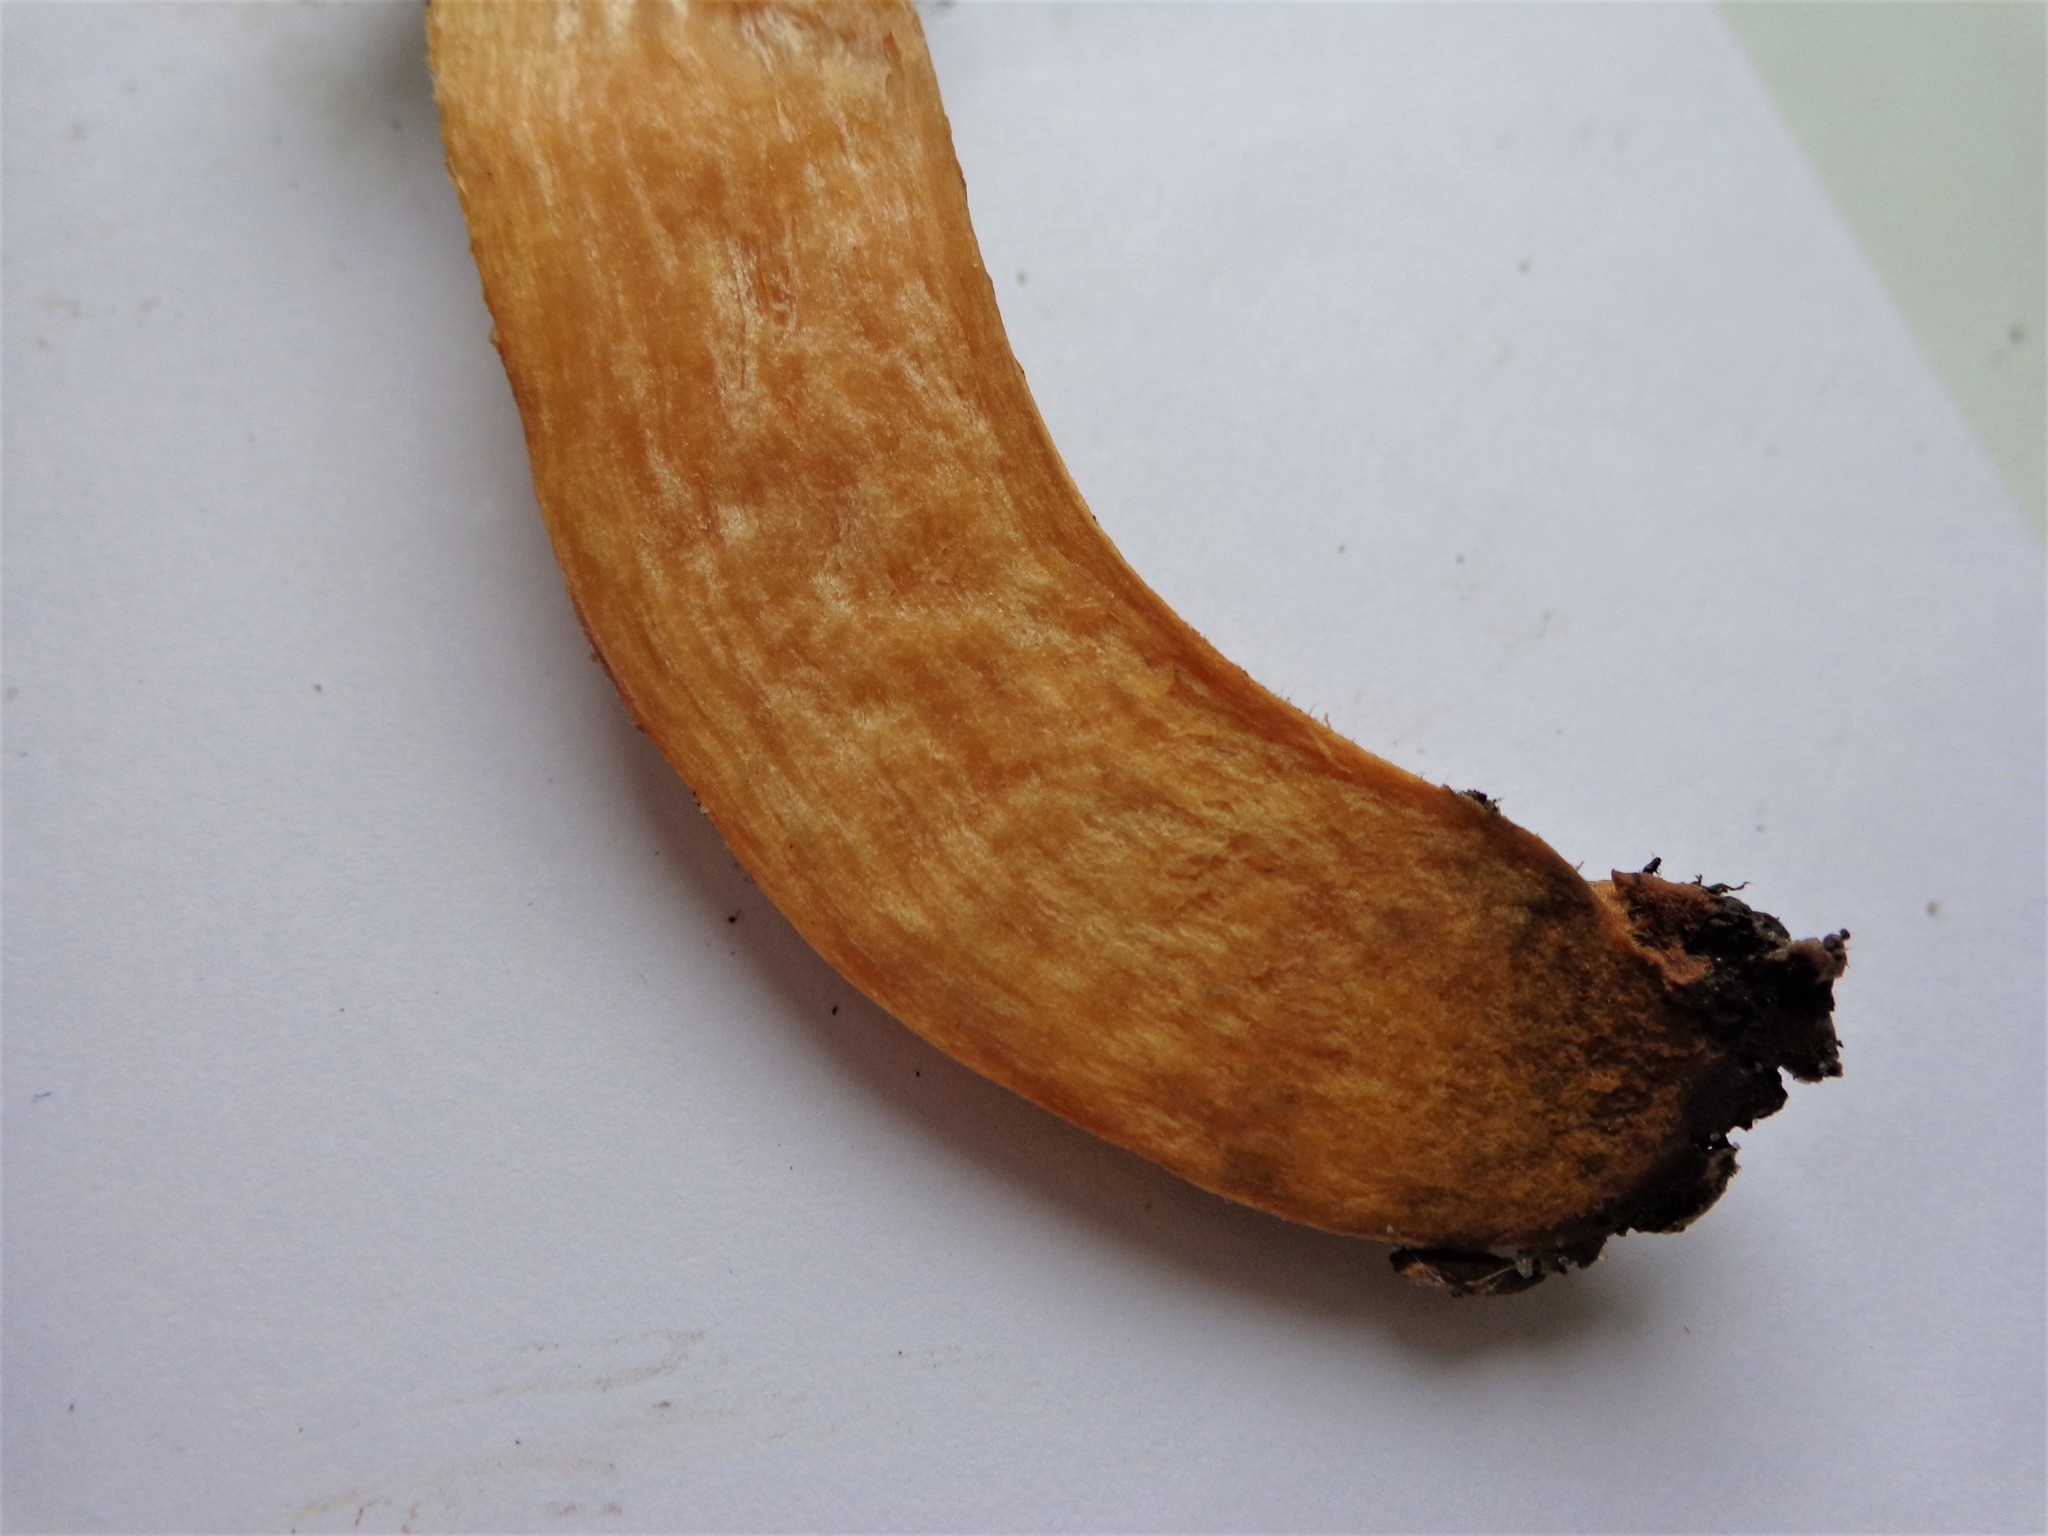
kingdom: Fungi
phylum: Basidiomycota
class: Agaricomycetes
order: Boletales
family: Gomphidiaceae
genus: Chroogomphus
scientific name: Chroogomphus rutilus
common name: Copper spike
